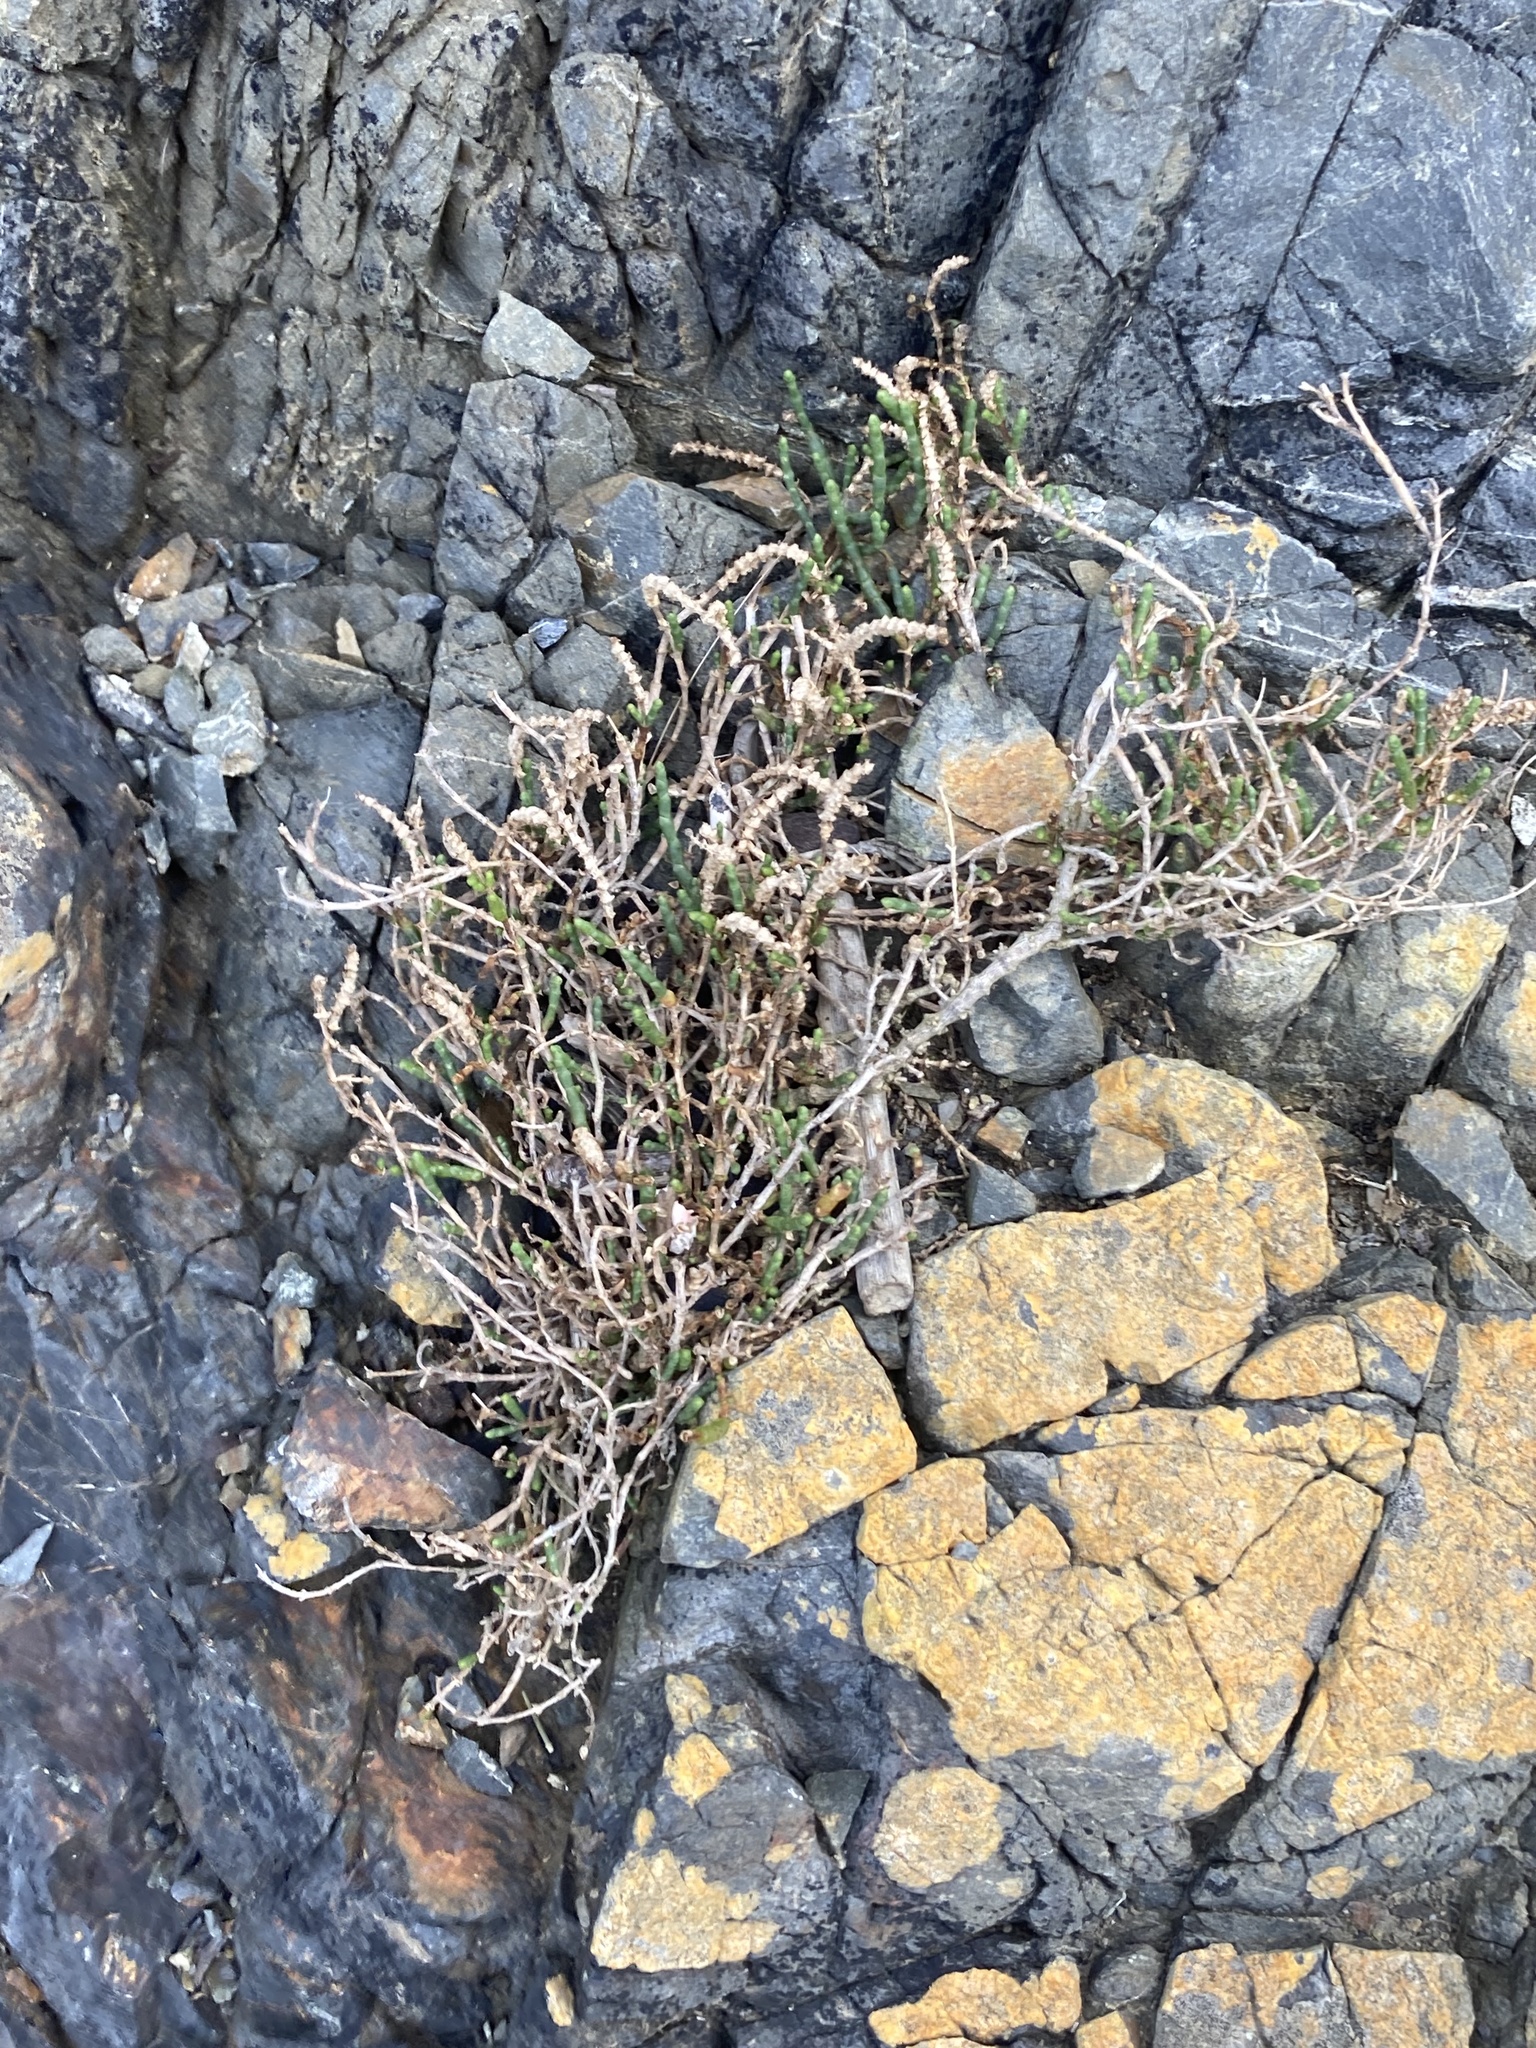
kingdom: Plantae
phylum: Tracheophyta
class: Magnoliopsida
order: Caryophyllales
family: Amaranthaceae
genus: Salicornia
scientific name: Salicornia quinqueflora
